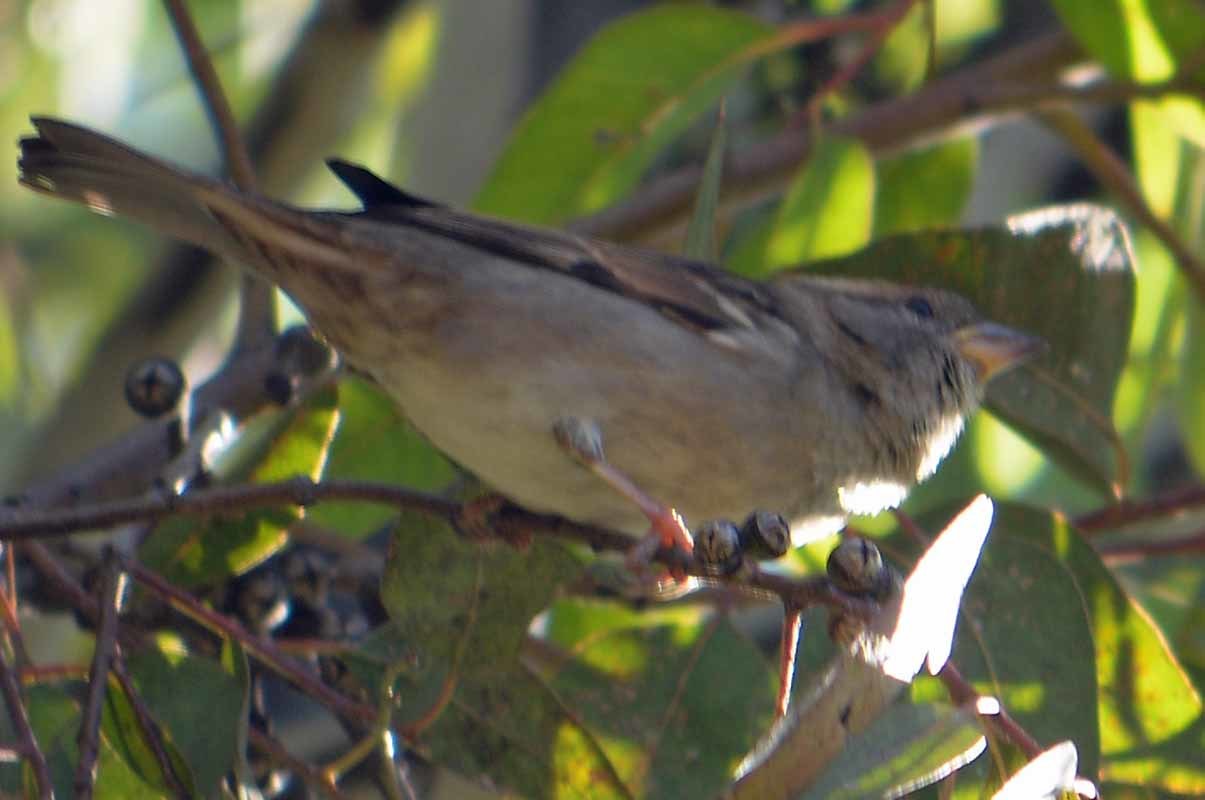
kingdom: Animalia
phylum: Chordata
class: Aves
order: Passeriformes
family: Passeridae
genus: Passer
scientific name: Passer domesticus
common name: House sparrow
